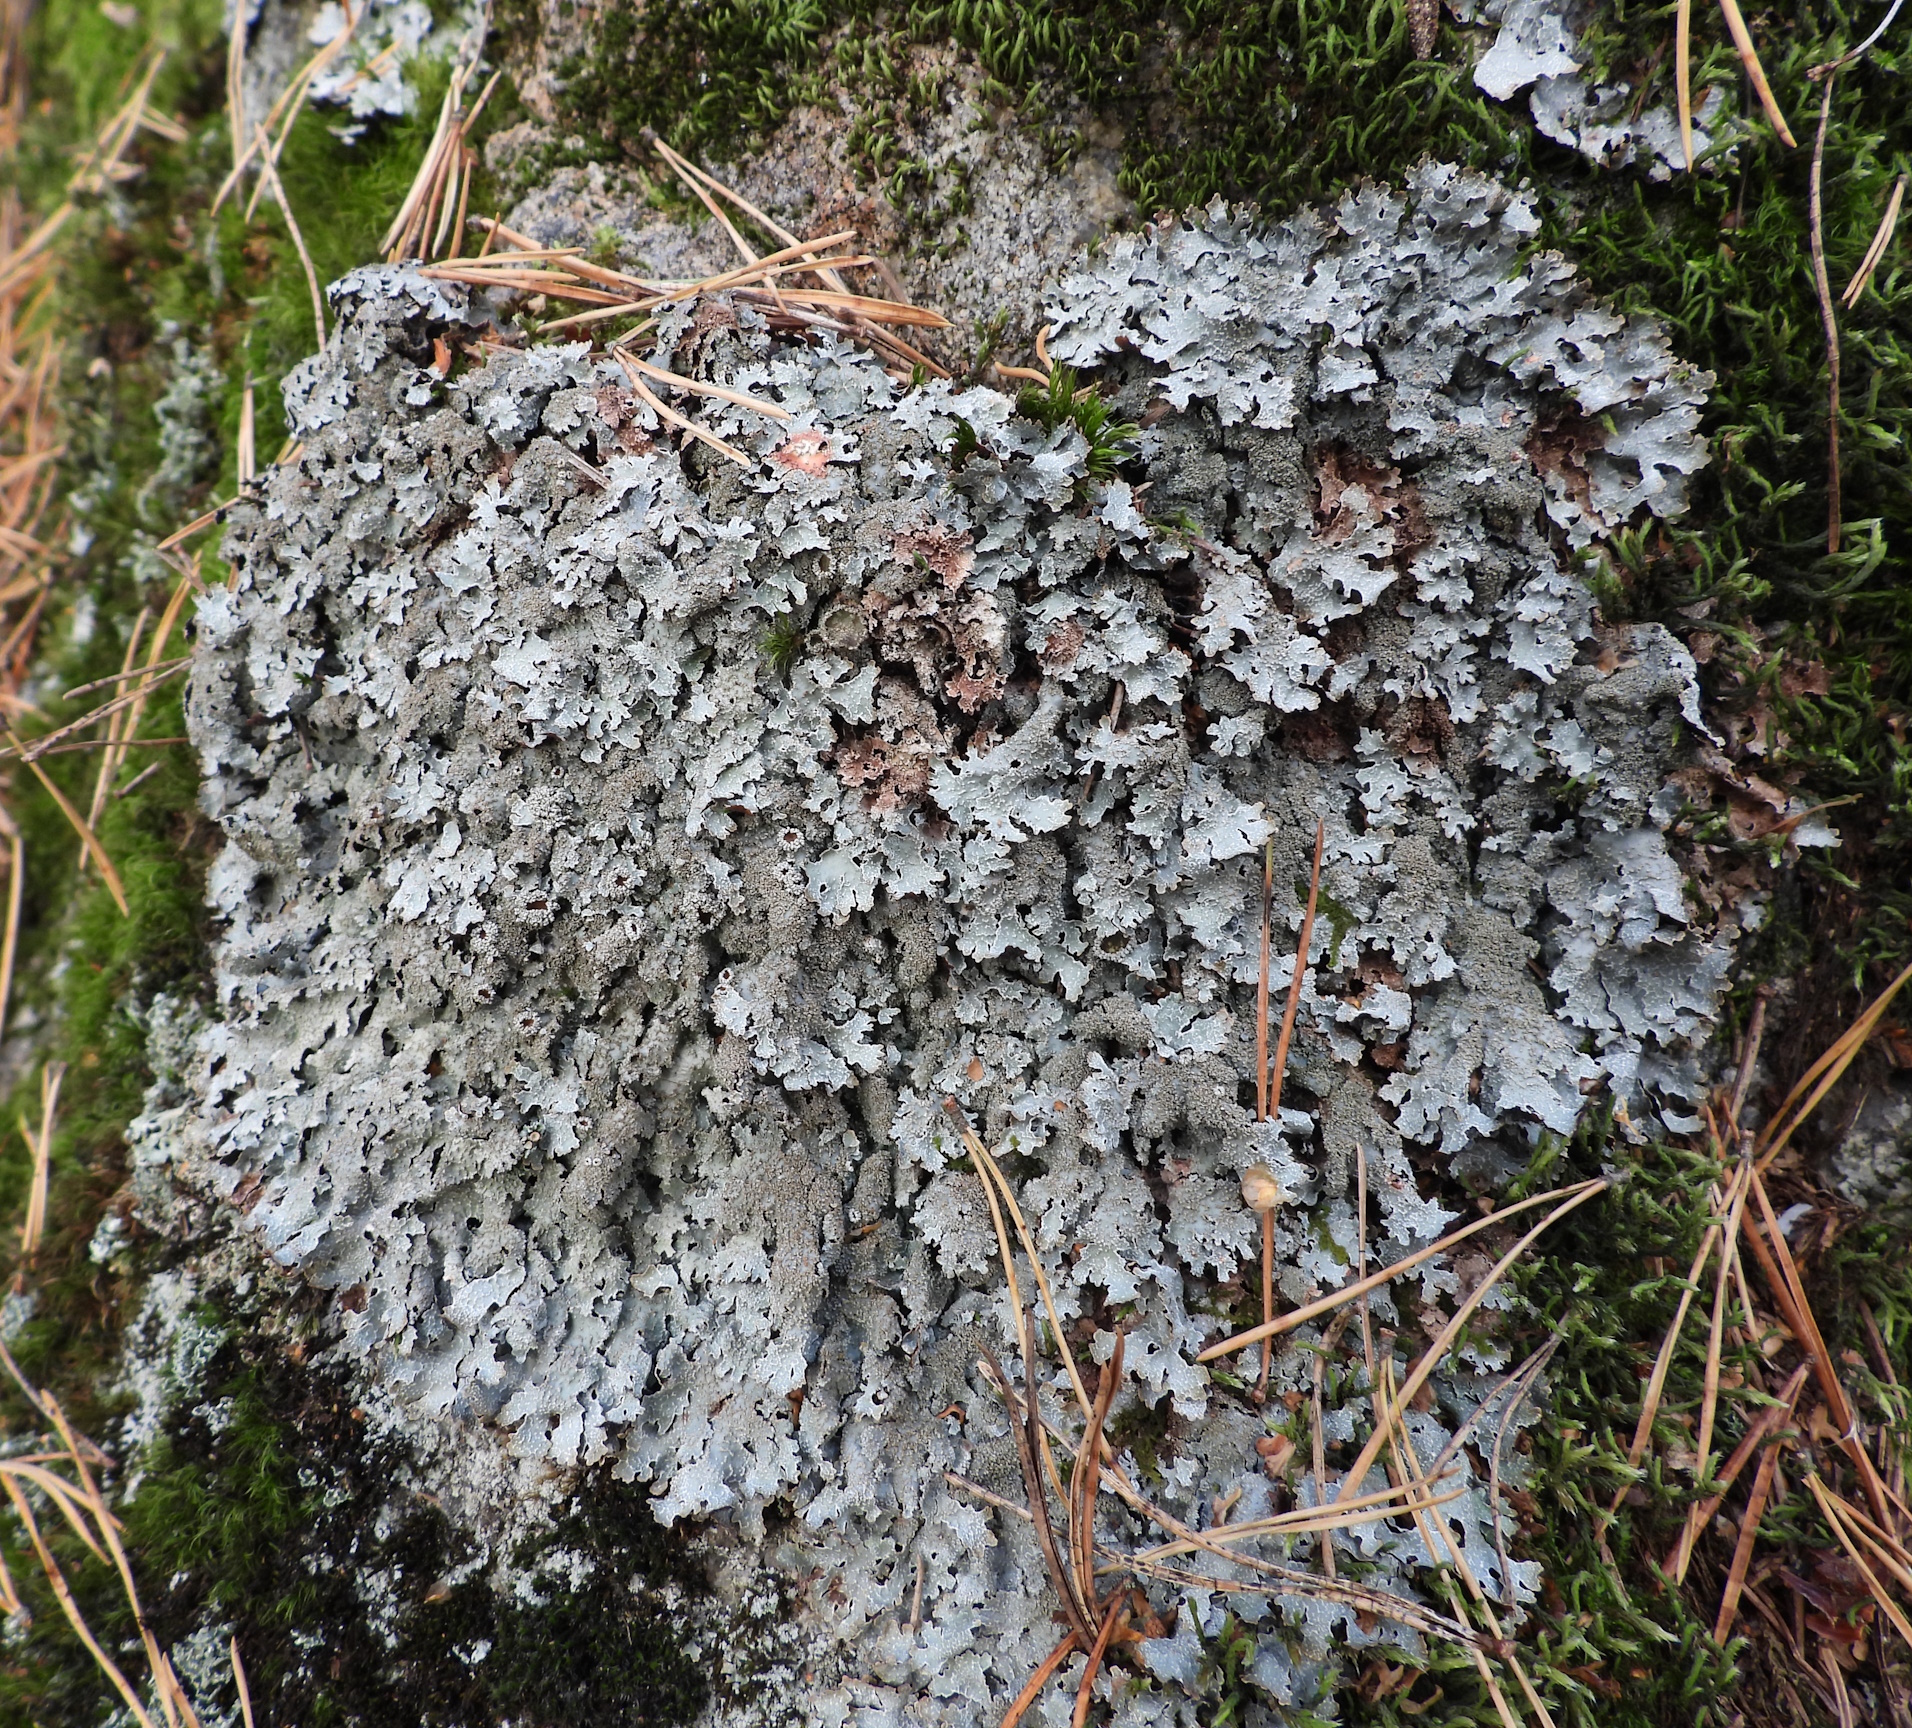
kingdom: Fungi
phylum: Ascomycota
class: Lecanoromycetes
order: Lecanorales
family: Parmeliaceae
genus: Parmelia
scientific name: Parmelia saxatilis
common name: Salted shield lichen
